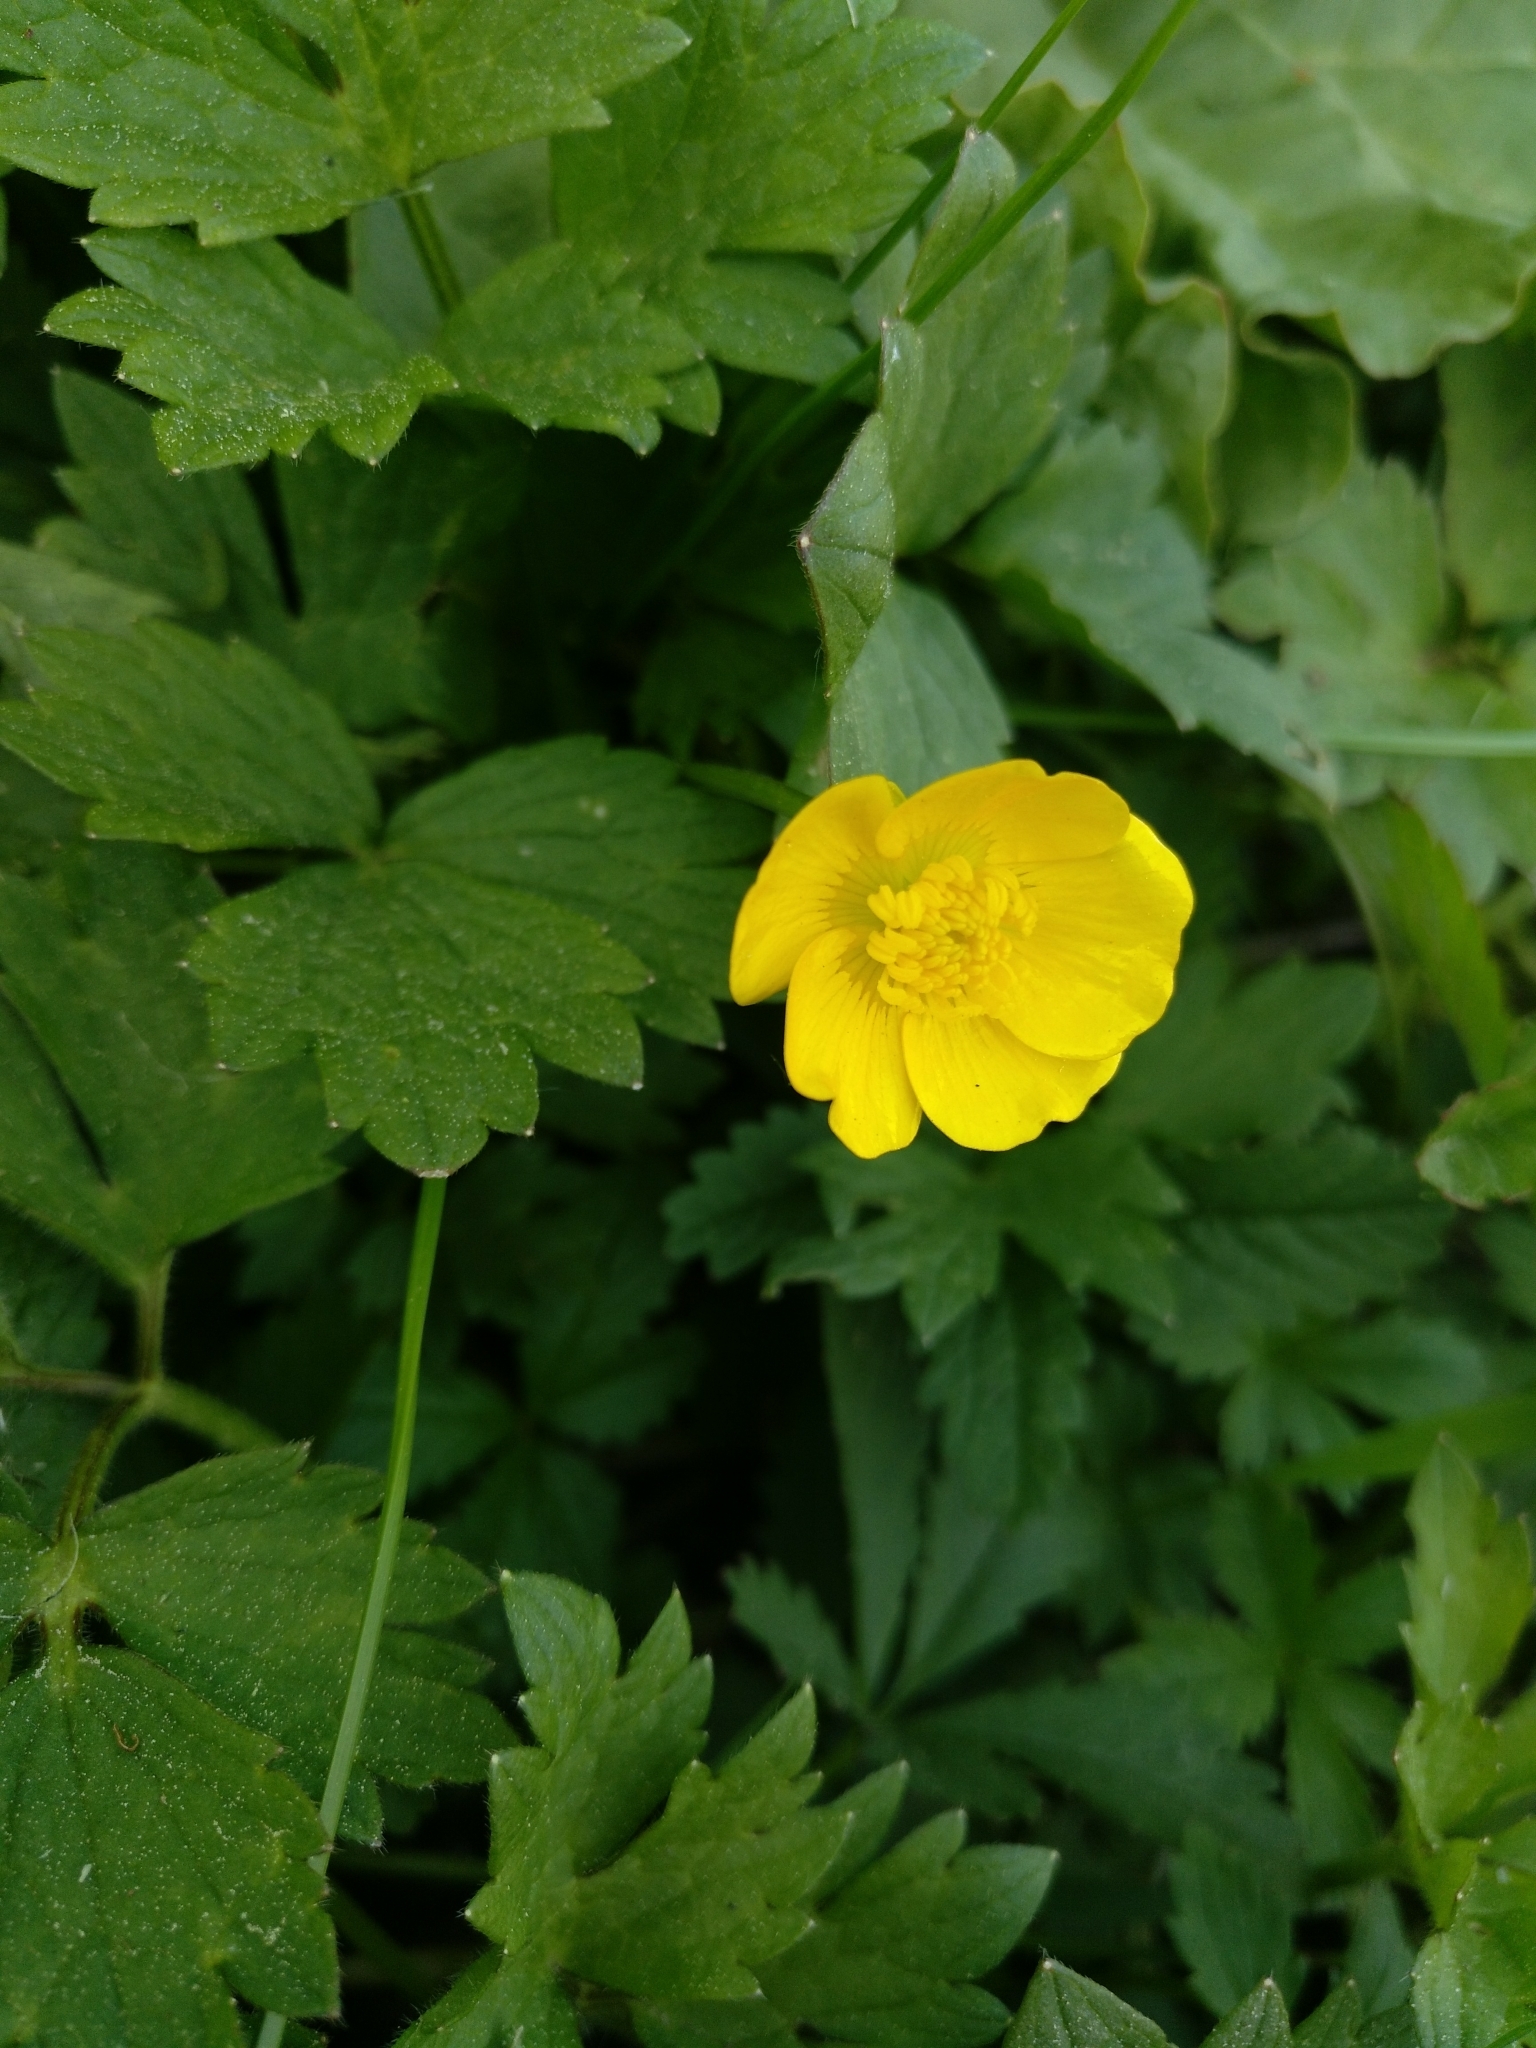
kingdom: Plantae
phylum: Tracheophyta
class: Magnoliopsida
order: Ranunculales
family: Ranunculaceae
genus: Ranunculus
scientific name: Ranunculus repens
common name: Creeping buttercup
